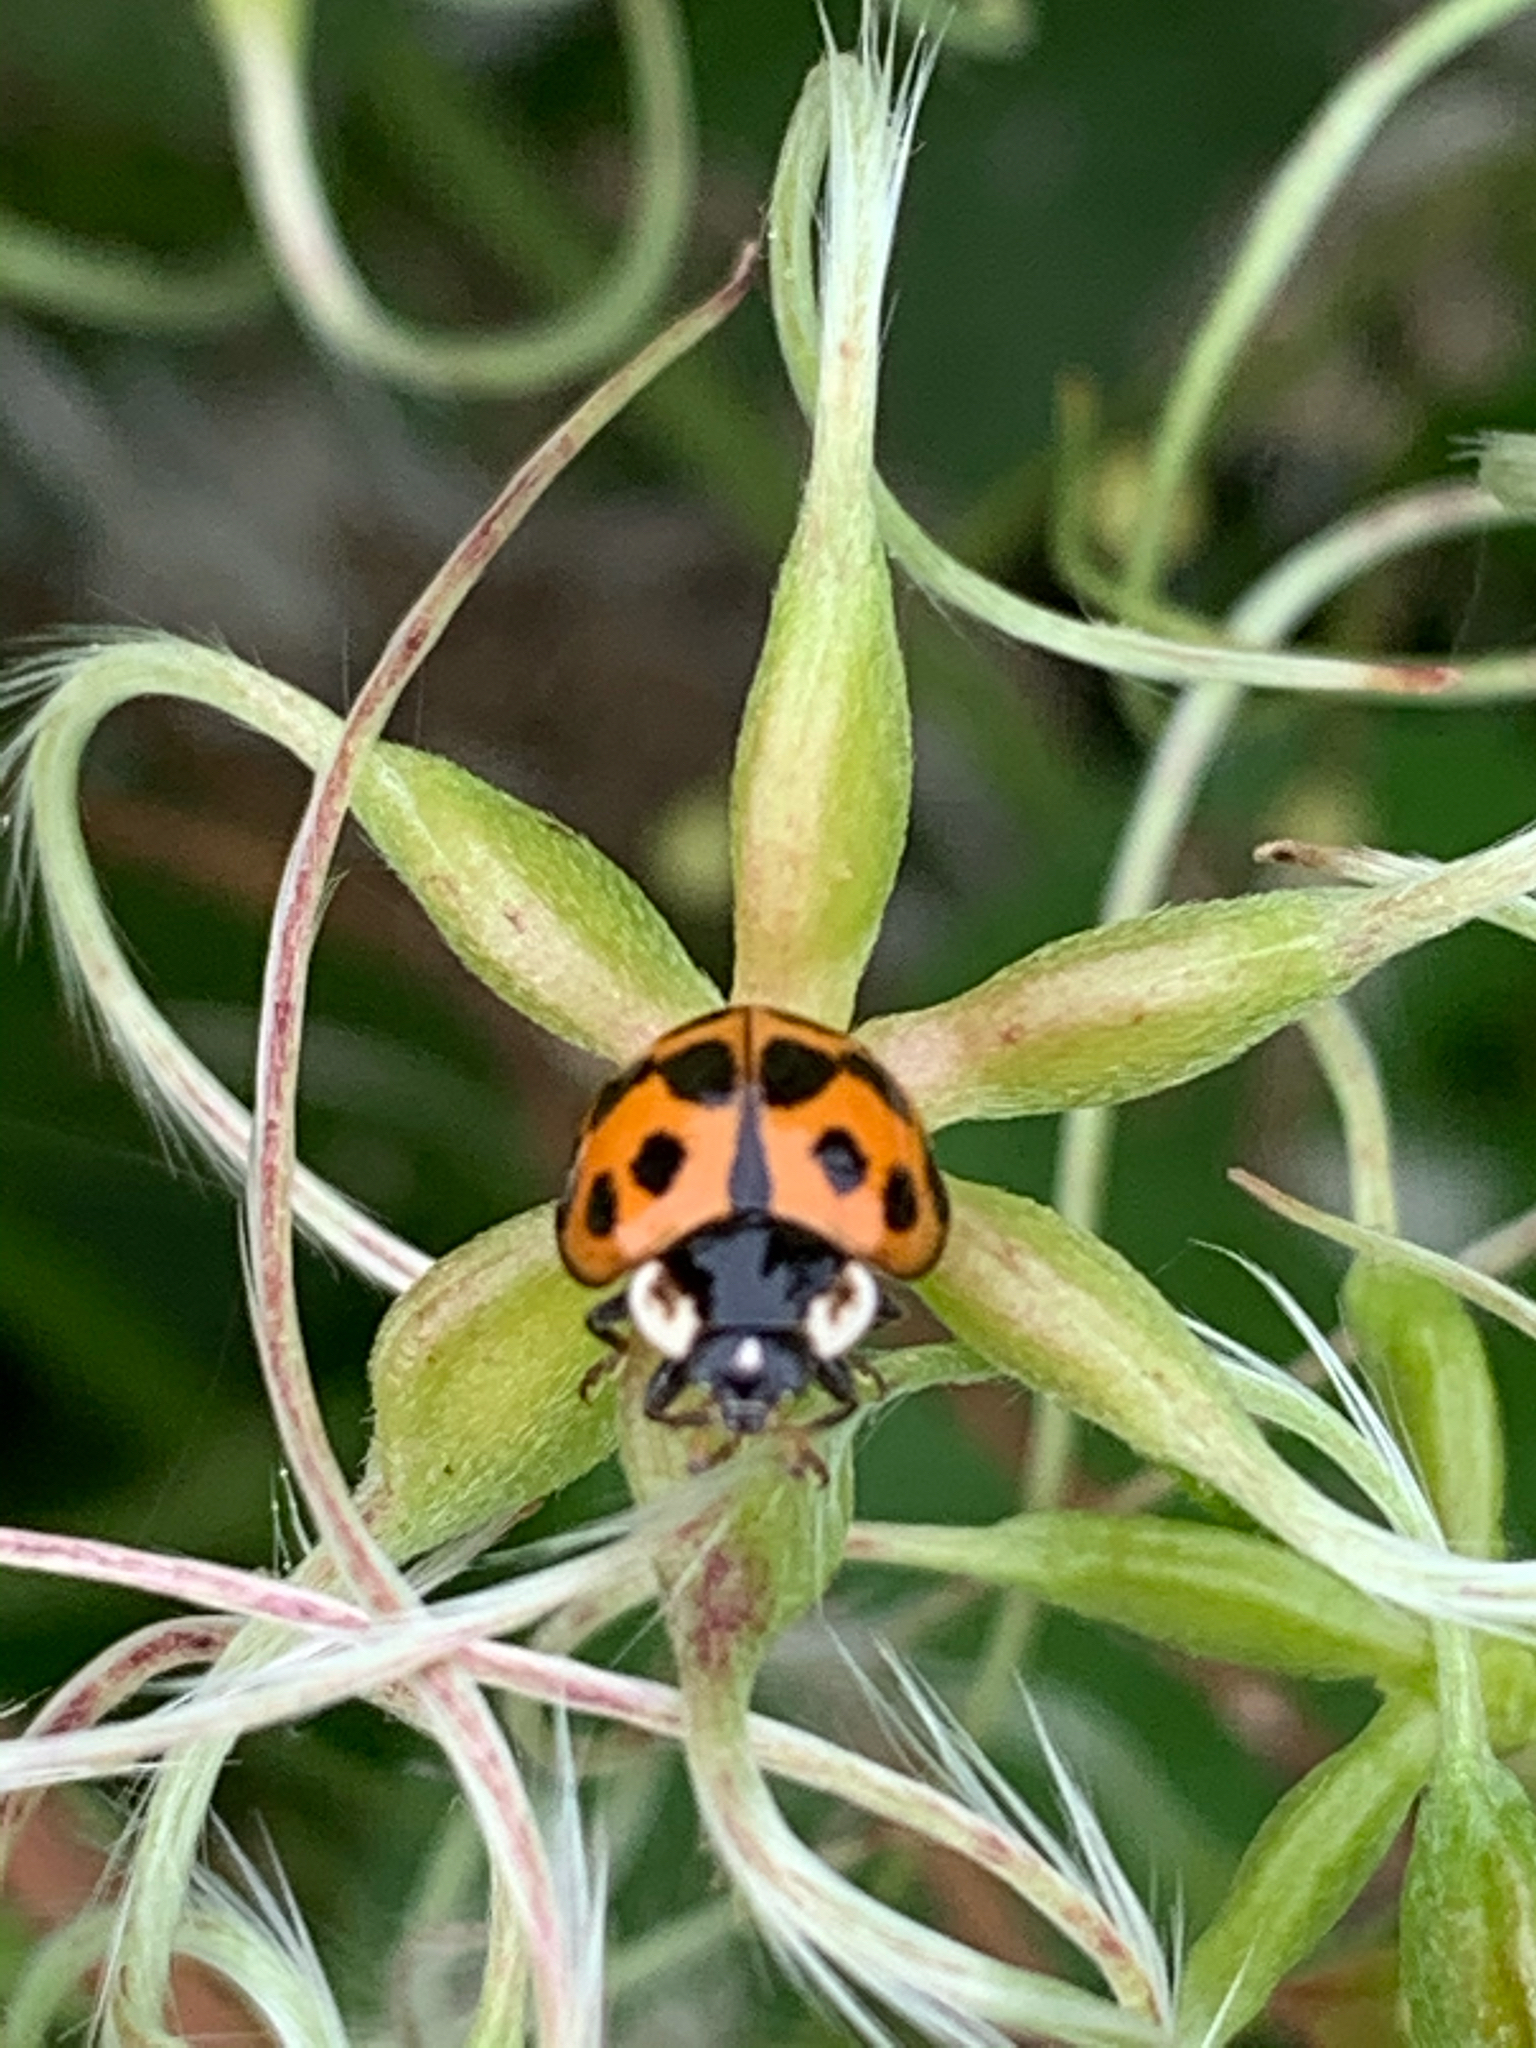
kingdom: Animalia
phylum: Arthropoda
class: Insecta
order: Coleoptera
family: Coccinellidae
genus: Harmonia
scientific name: Harmonia axyridis
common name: Harlequin ladybird
